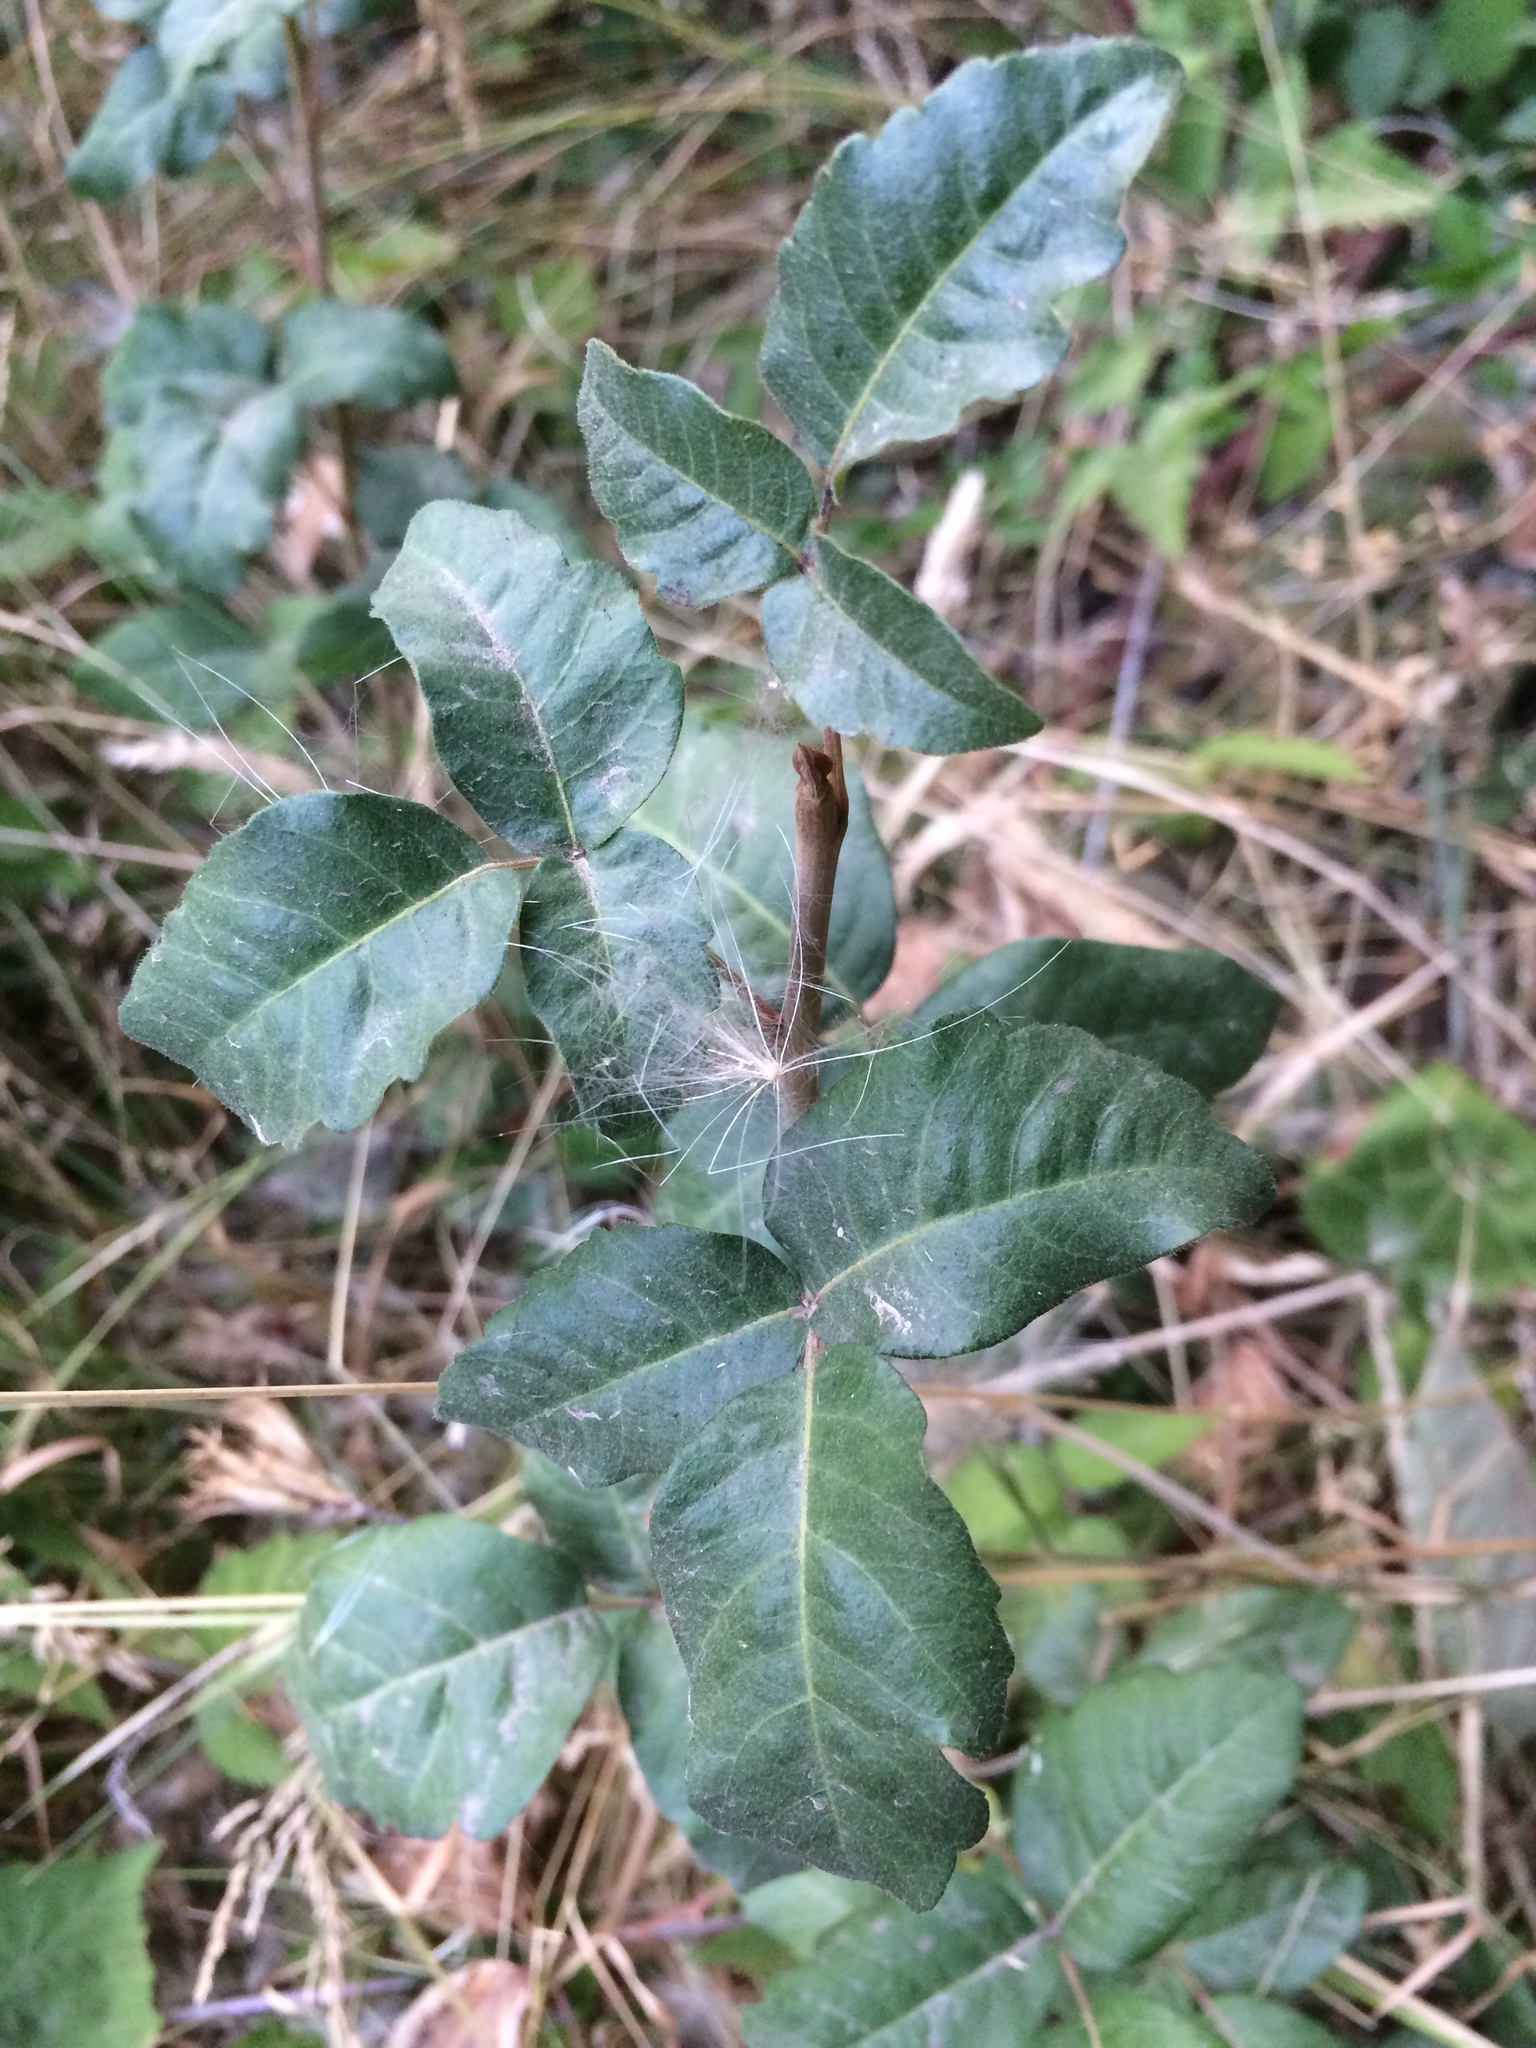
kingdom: Plantae
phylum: Tracheophyta
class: Magnoliopsida
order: Sapindales
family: Anacardiaceae
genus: Toxicodendron
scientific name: Toxicodendron diversilobum
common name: Pacific poison-oak
